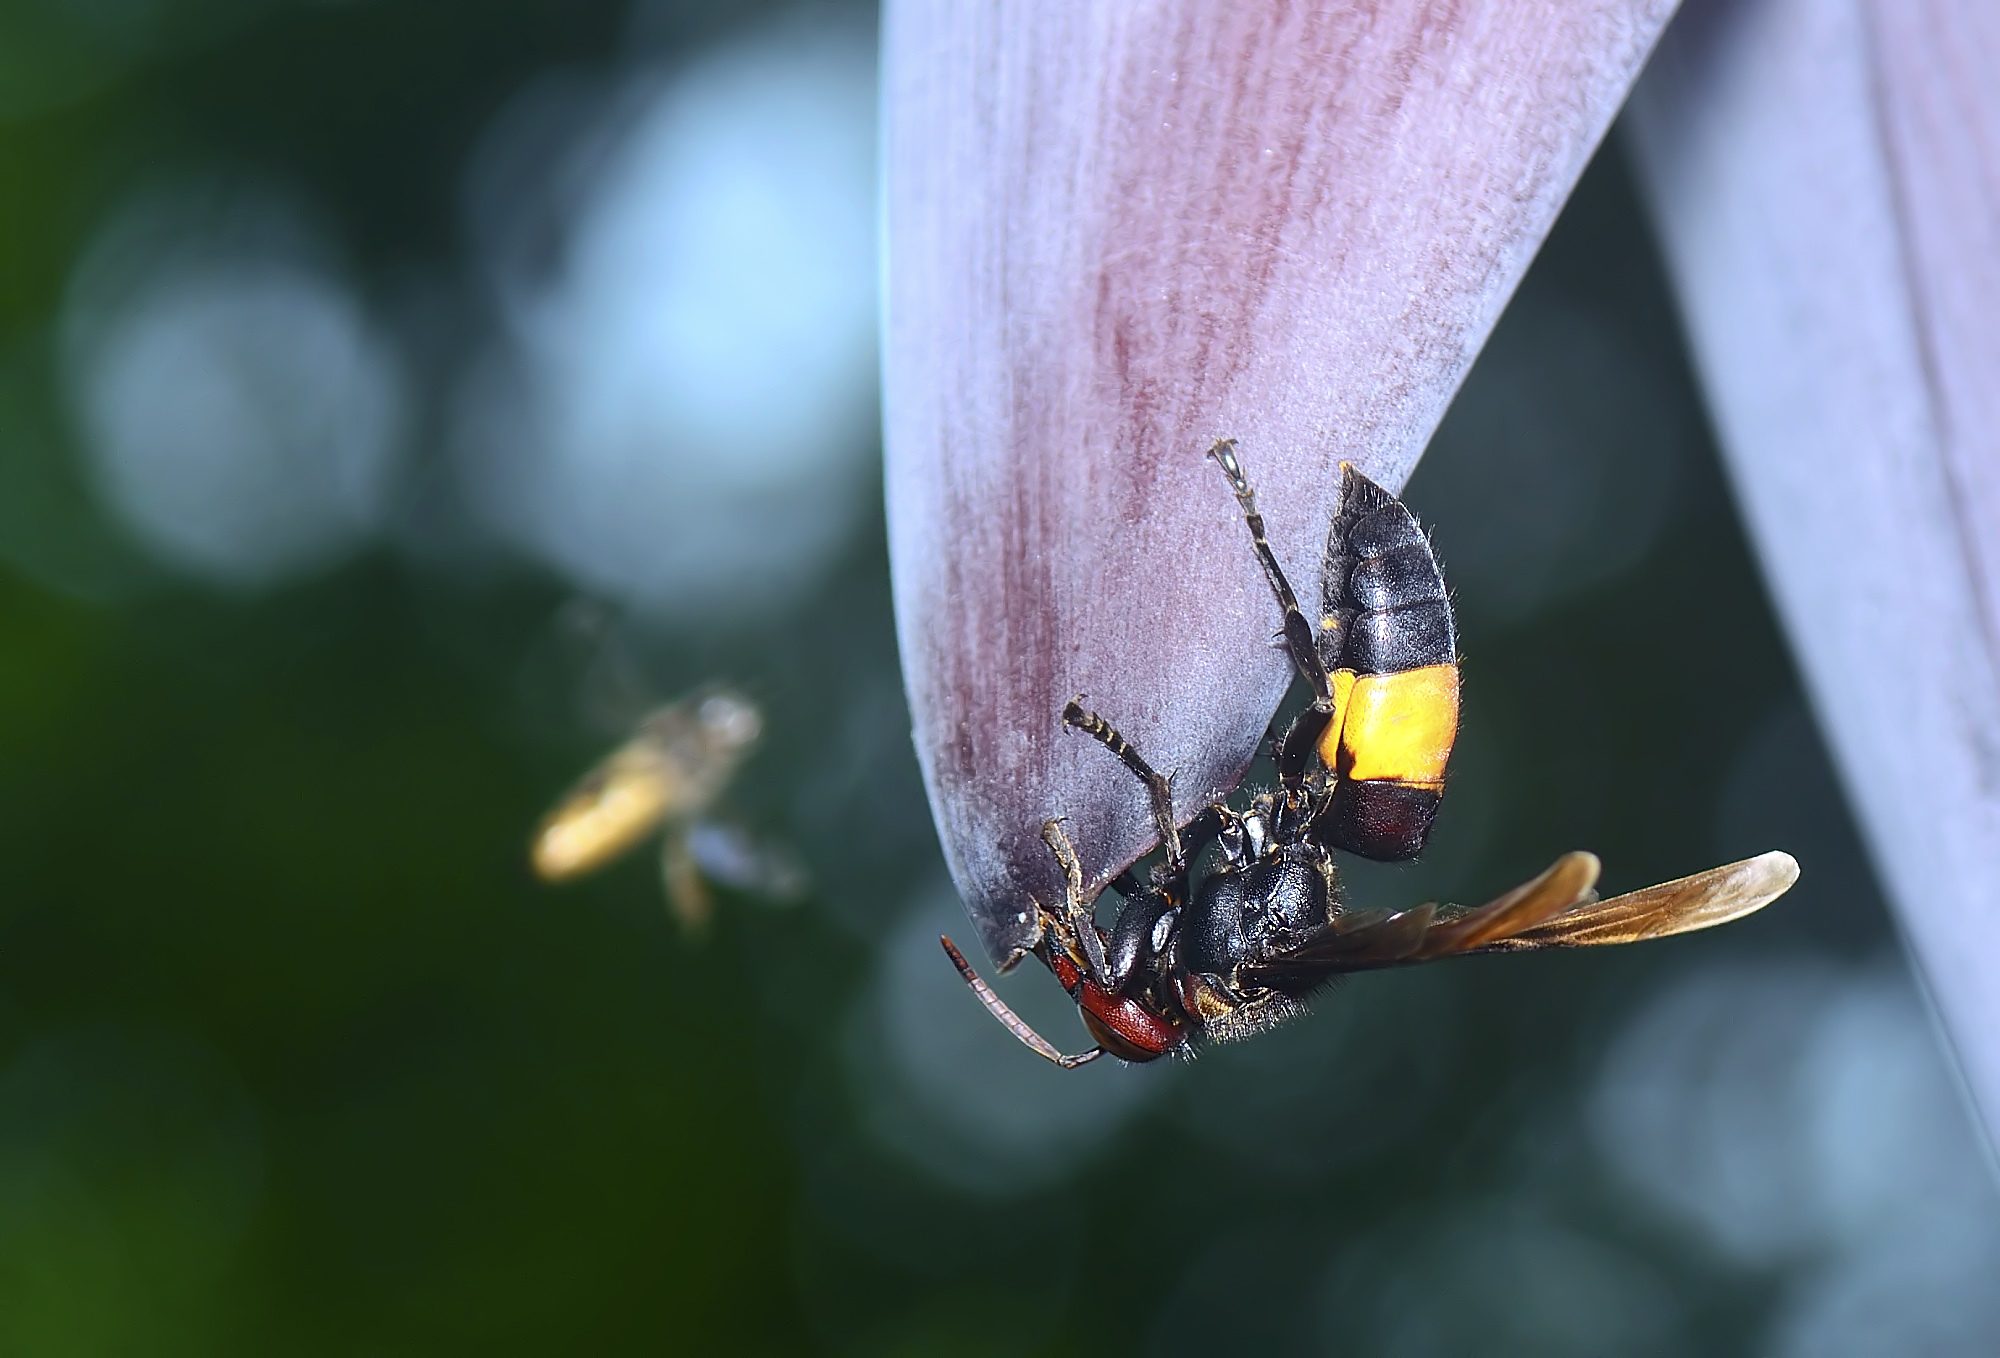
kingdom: Animalia
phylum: Arthropoda
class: Insecta
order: Hymenoptera
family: Vespidae
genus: Vespa
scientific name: Vespa tropica
